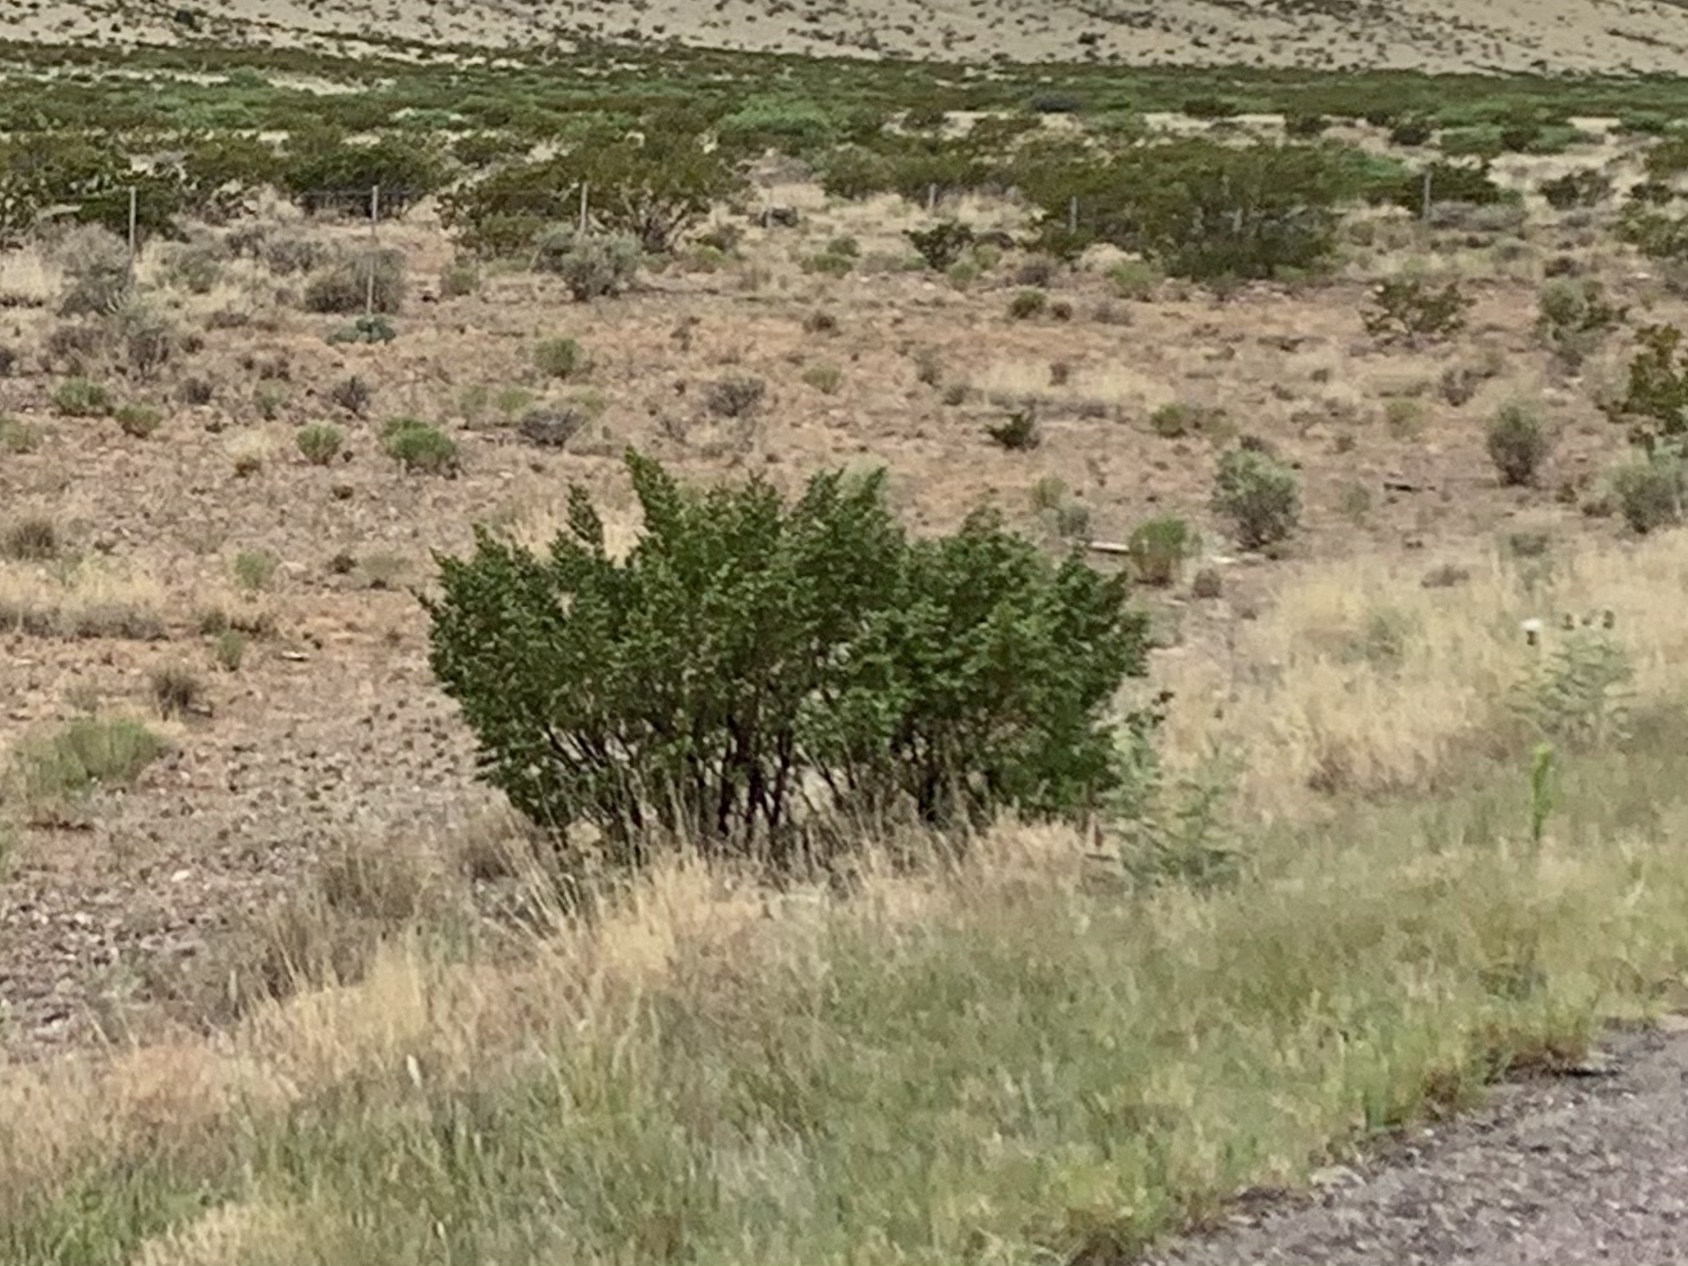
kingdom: Plantae
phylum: Tracheophyta
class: Magnoliopsida
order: Zygophyllales
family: Zygophyllaceae
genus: Larrea
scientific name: Larrea tridentata
